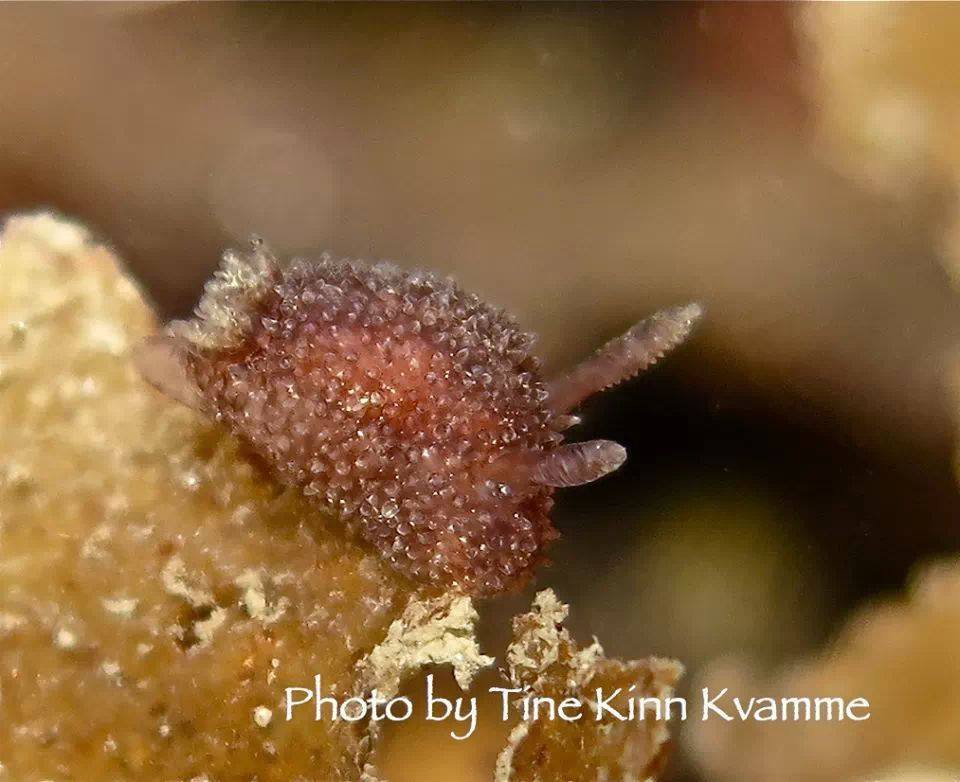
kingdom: Animalia
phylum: Mollusca
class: Gastropoda
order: Nudibranchia
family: Onchidorididae
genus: Acanthodoris
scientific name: Acanthodoris pilosa
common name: Hairy spiny doris
